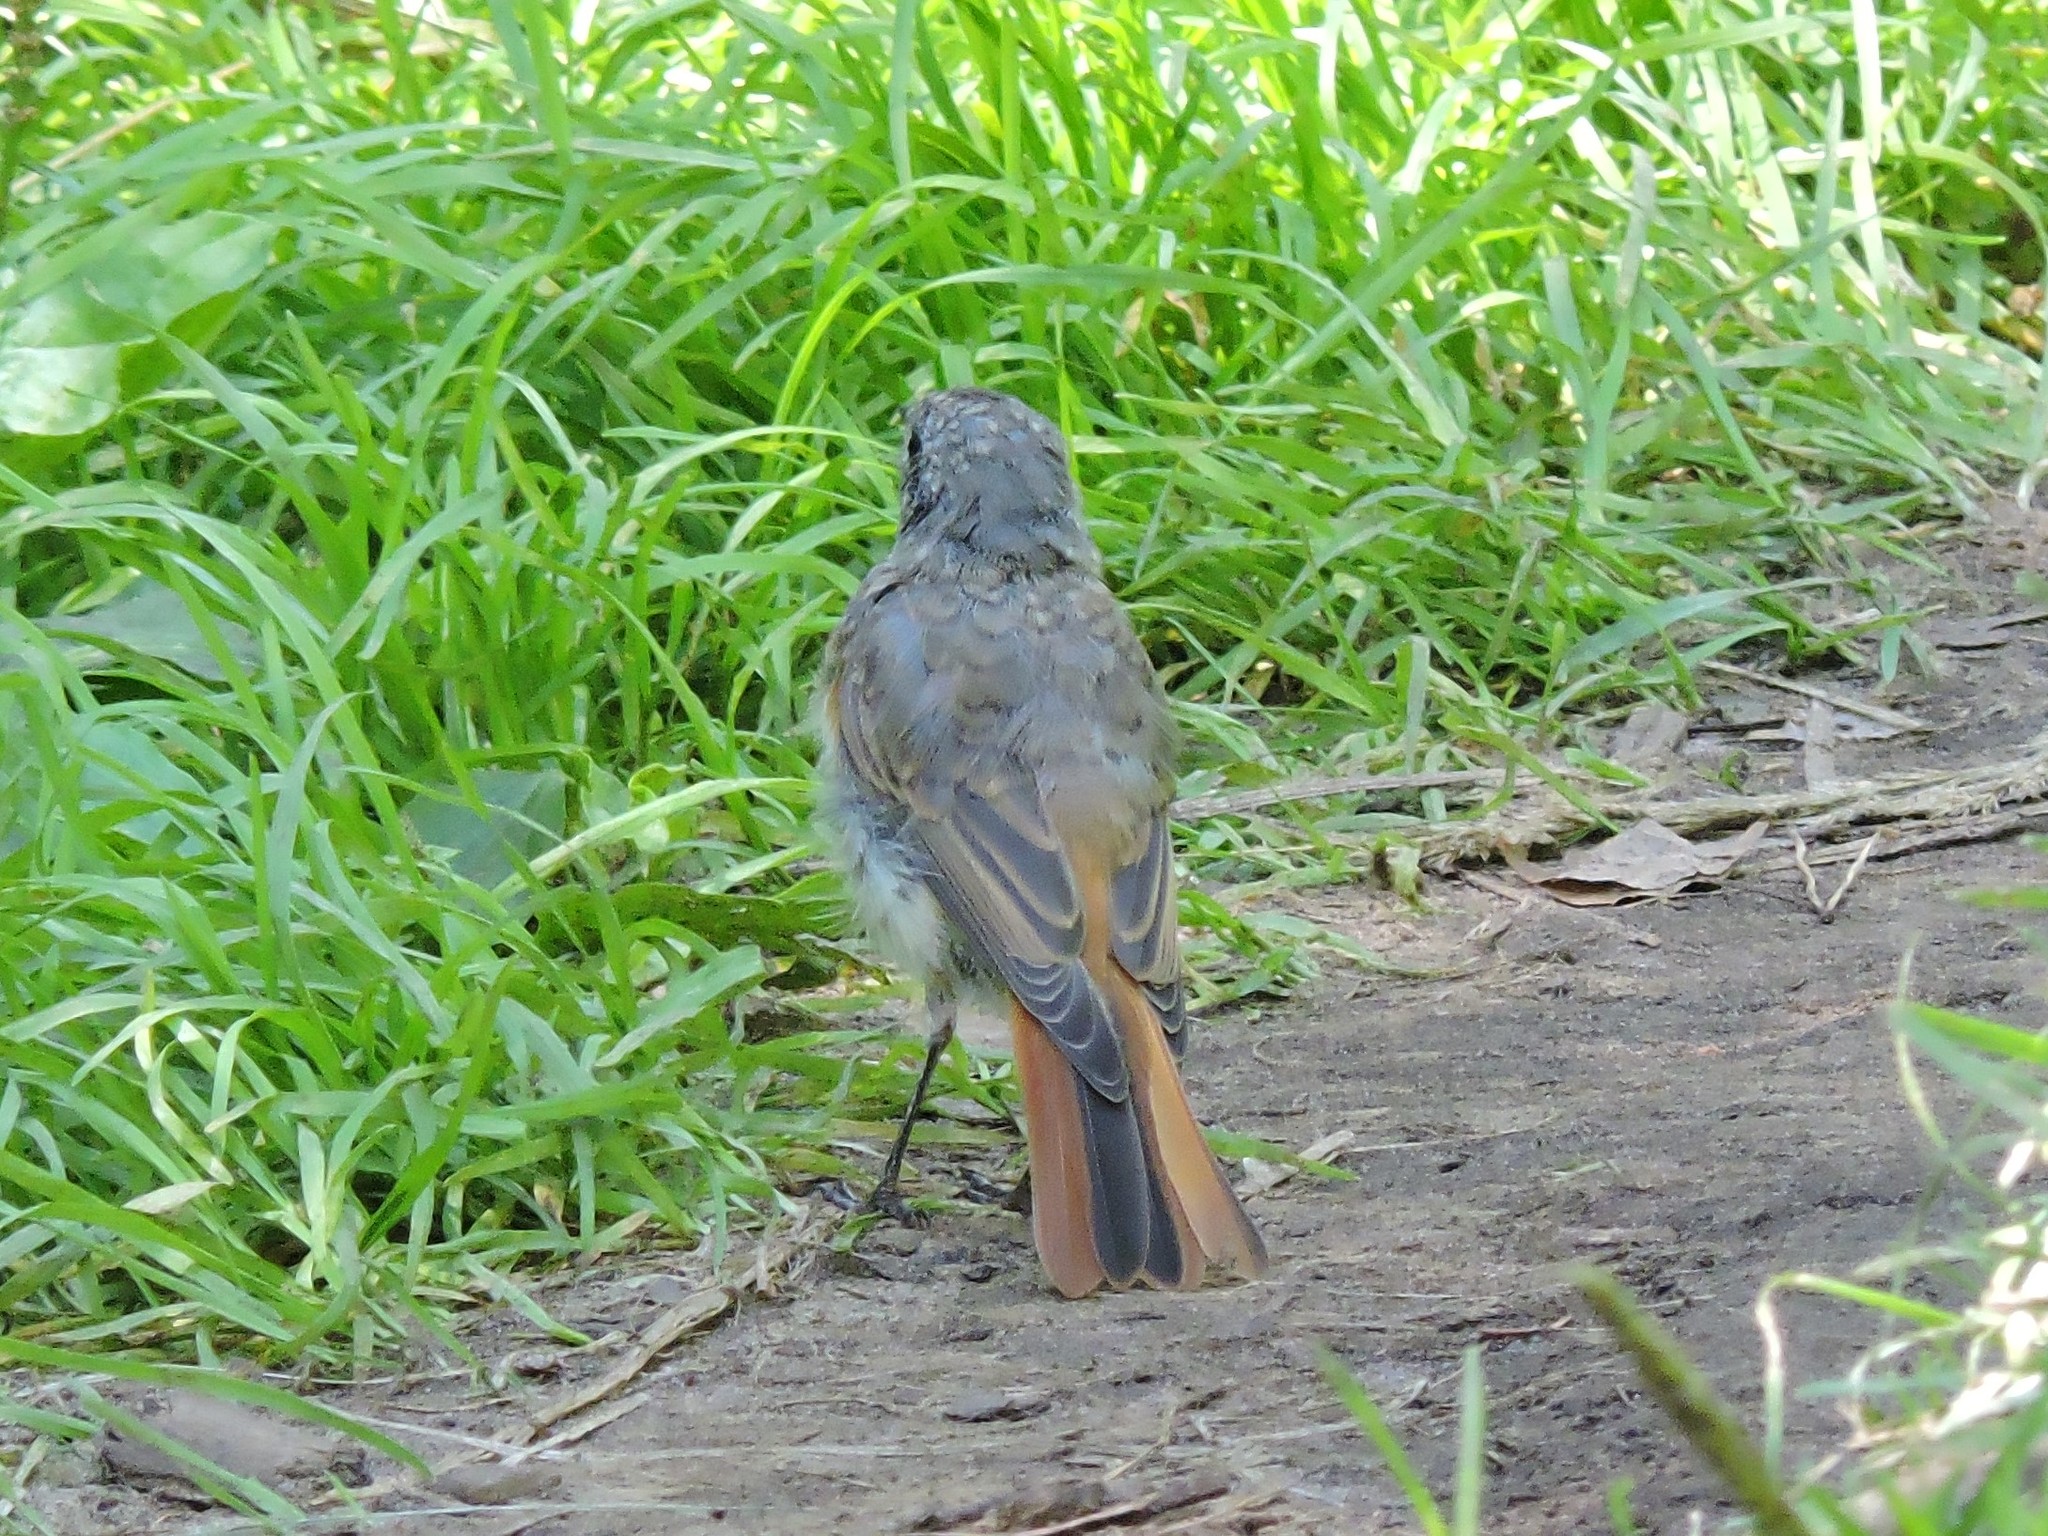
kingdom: Animalia
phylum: Chordata
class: Aves
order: Passeriformes
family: Muscicapidae
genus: Phoenicurus
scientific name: Phoenicurus phoenicurus
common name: Common redstart
